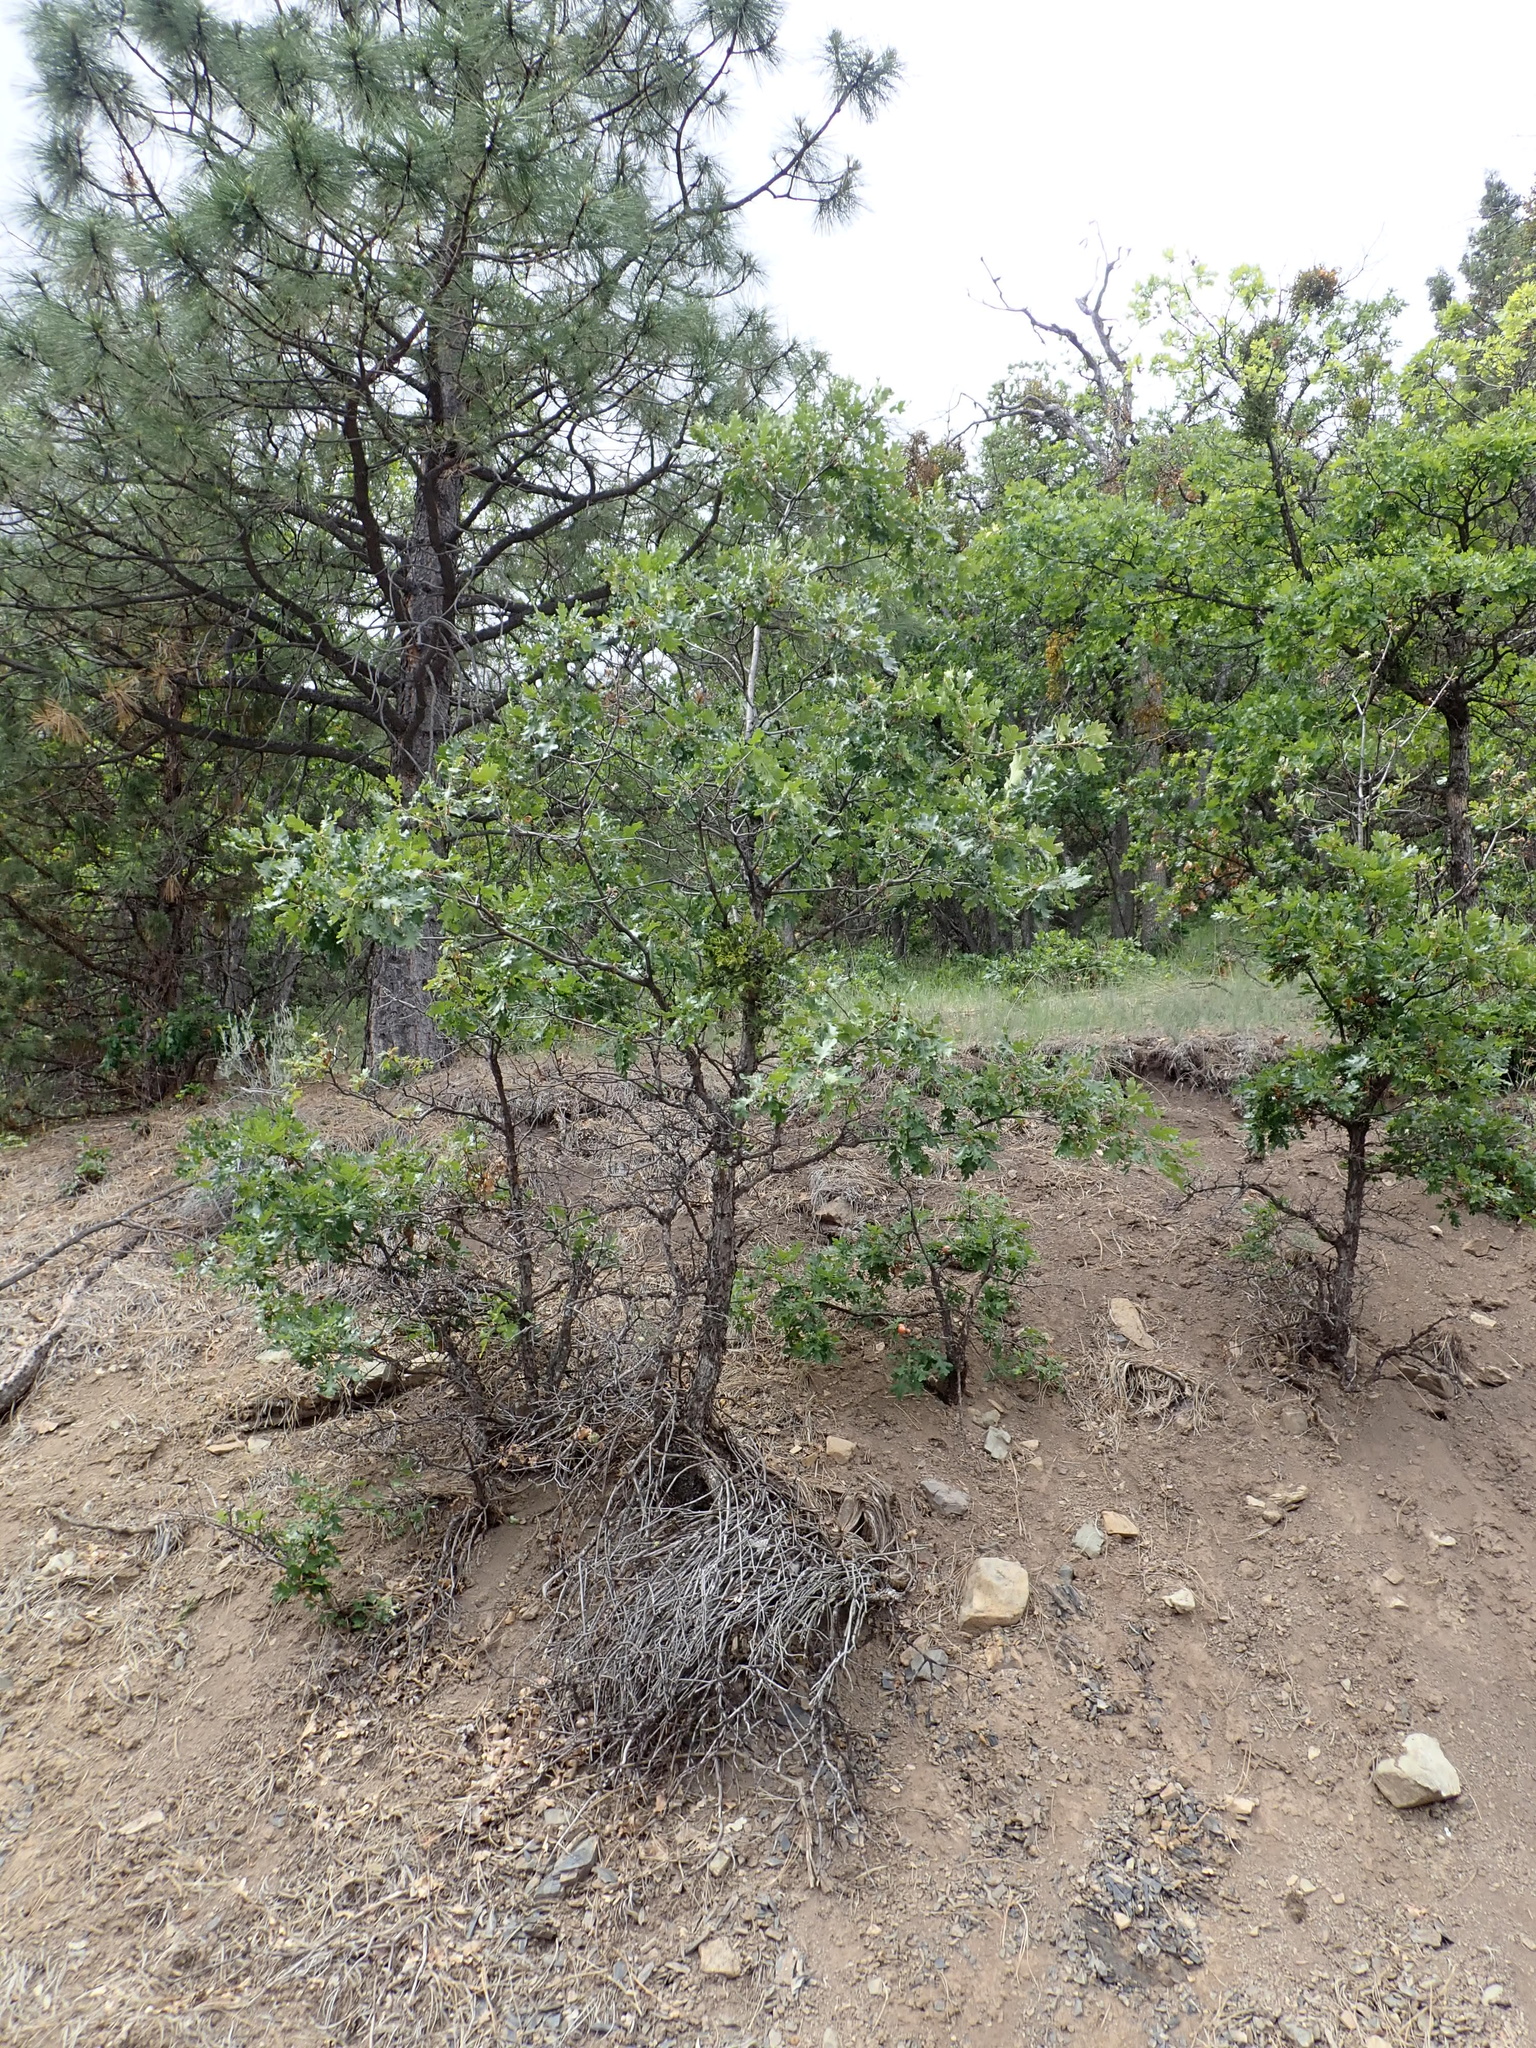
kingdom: Plantae
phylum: Tracheophyta
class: Magnoliopsida
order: Fagales
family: Fagaceae
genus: Quercus
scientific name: Quercus garryana
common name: Garry oak
